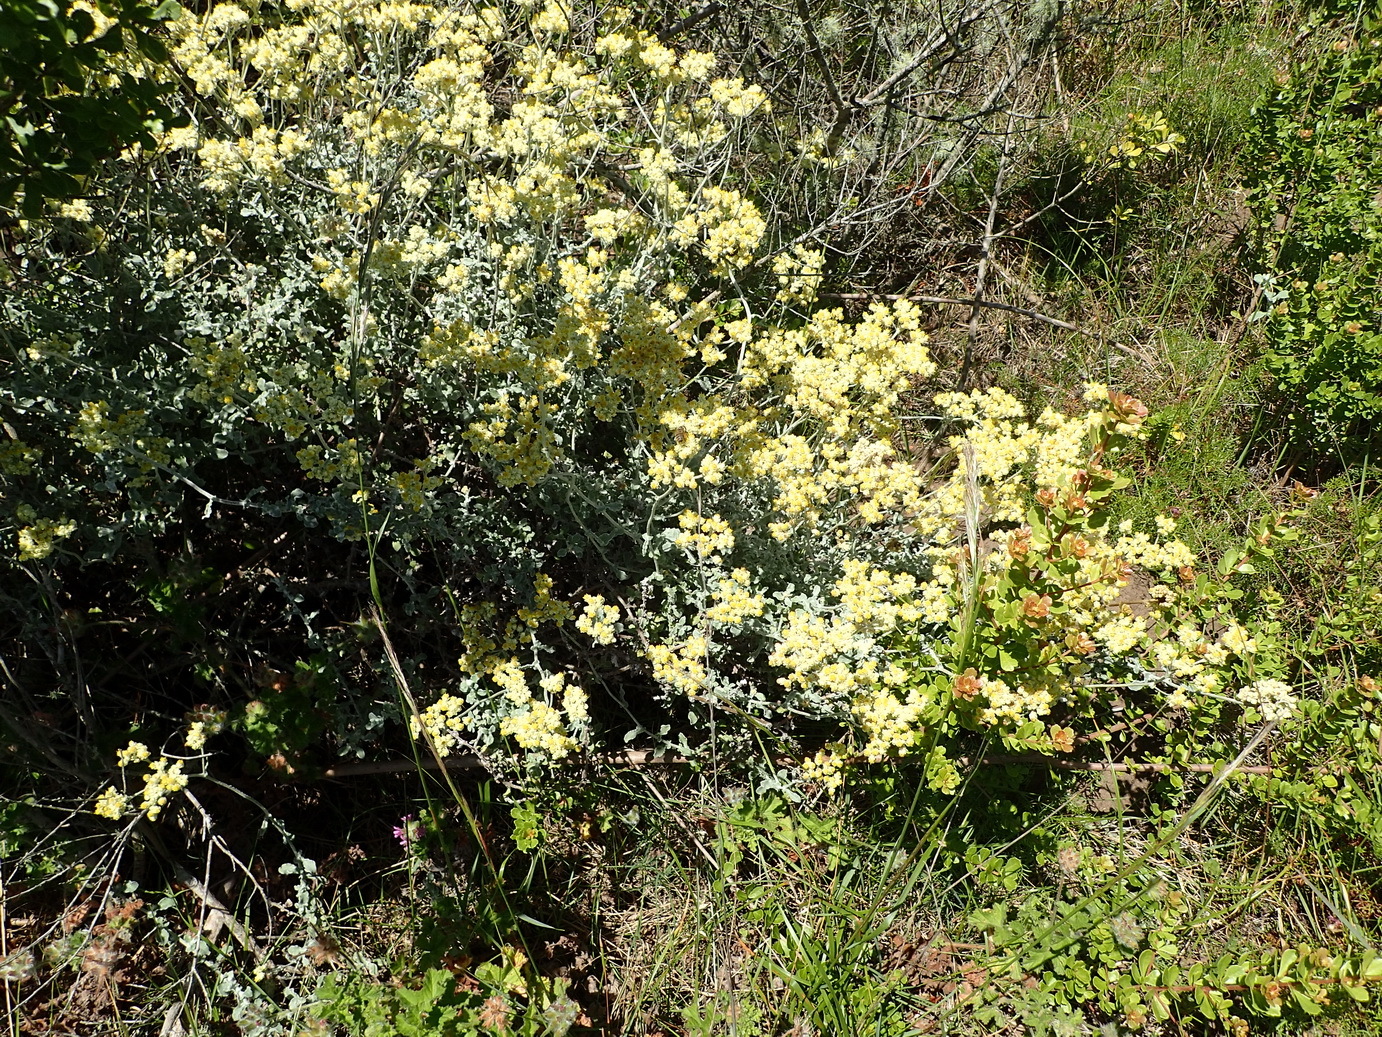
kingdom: Plantae
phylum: Tracheophyta
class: Magnoliopsida
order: Asterales
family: Asteraceae
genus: Helichrysum
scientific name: Helichrysum patulum
